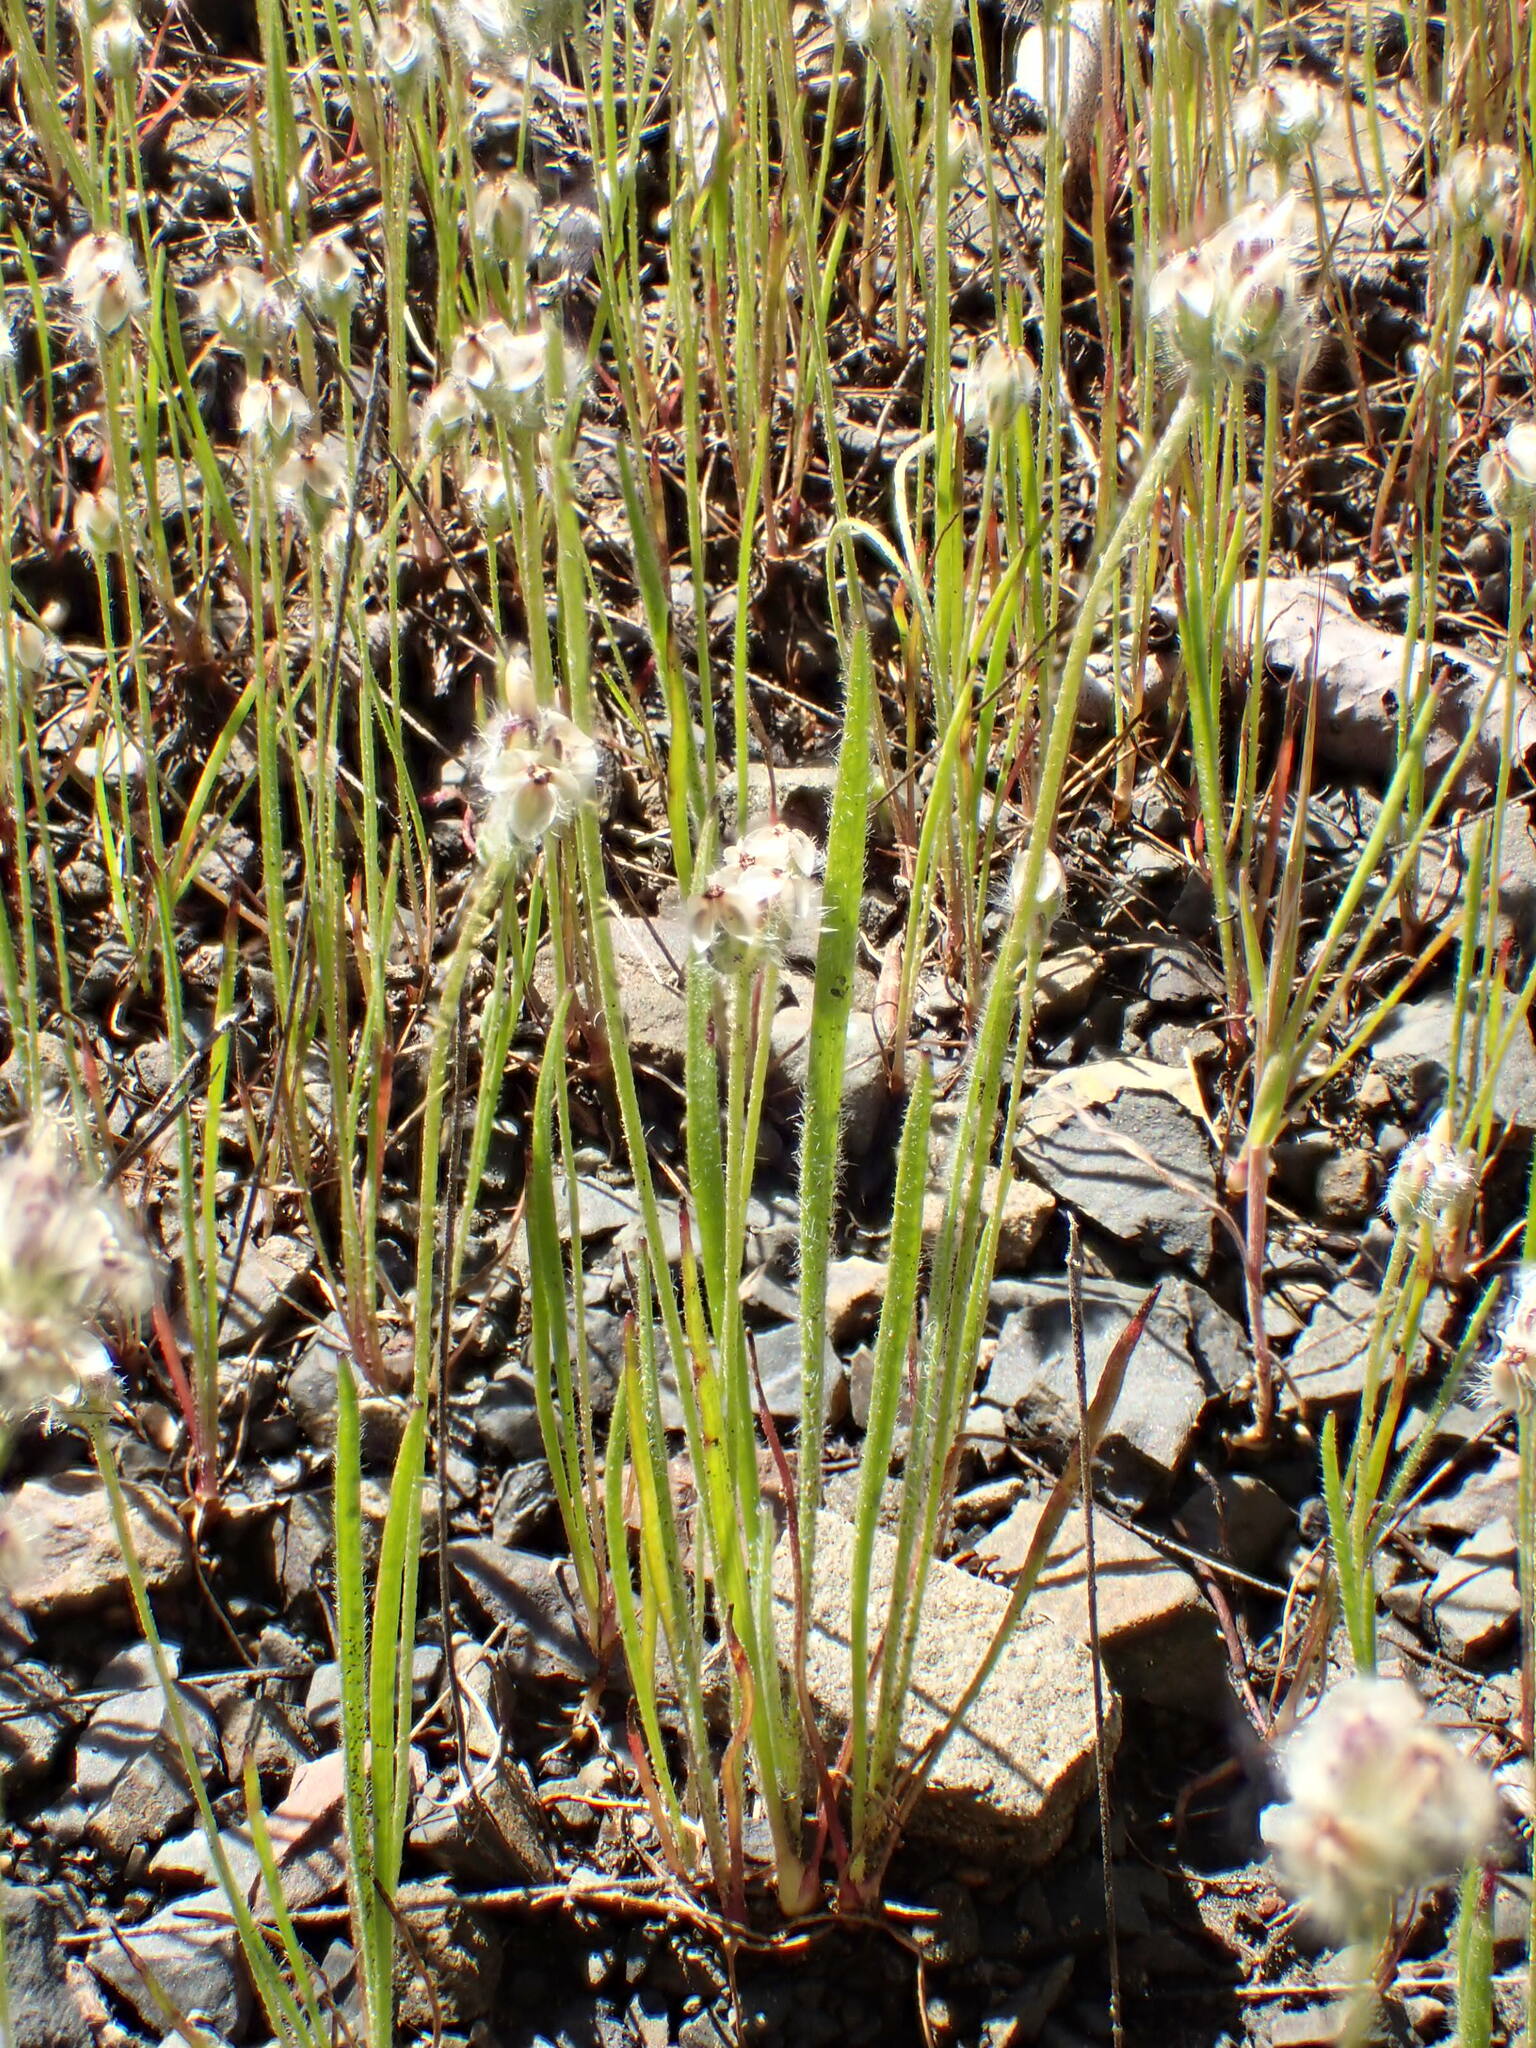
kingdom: Plantae
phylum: Tracheophyta
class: Magnoliopsida
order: Lamiales
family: Plantaginaceae
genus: Plantago
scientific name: Plantago erecta
